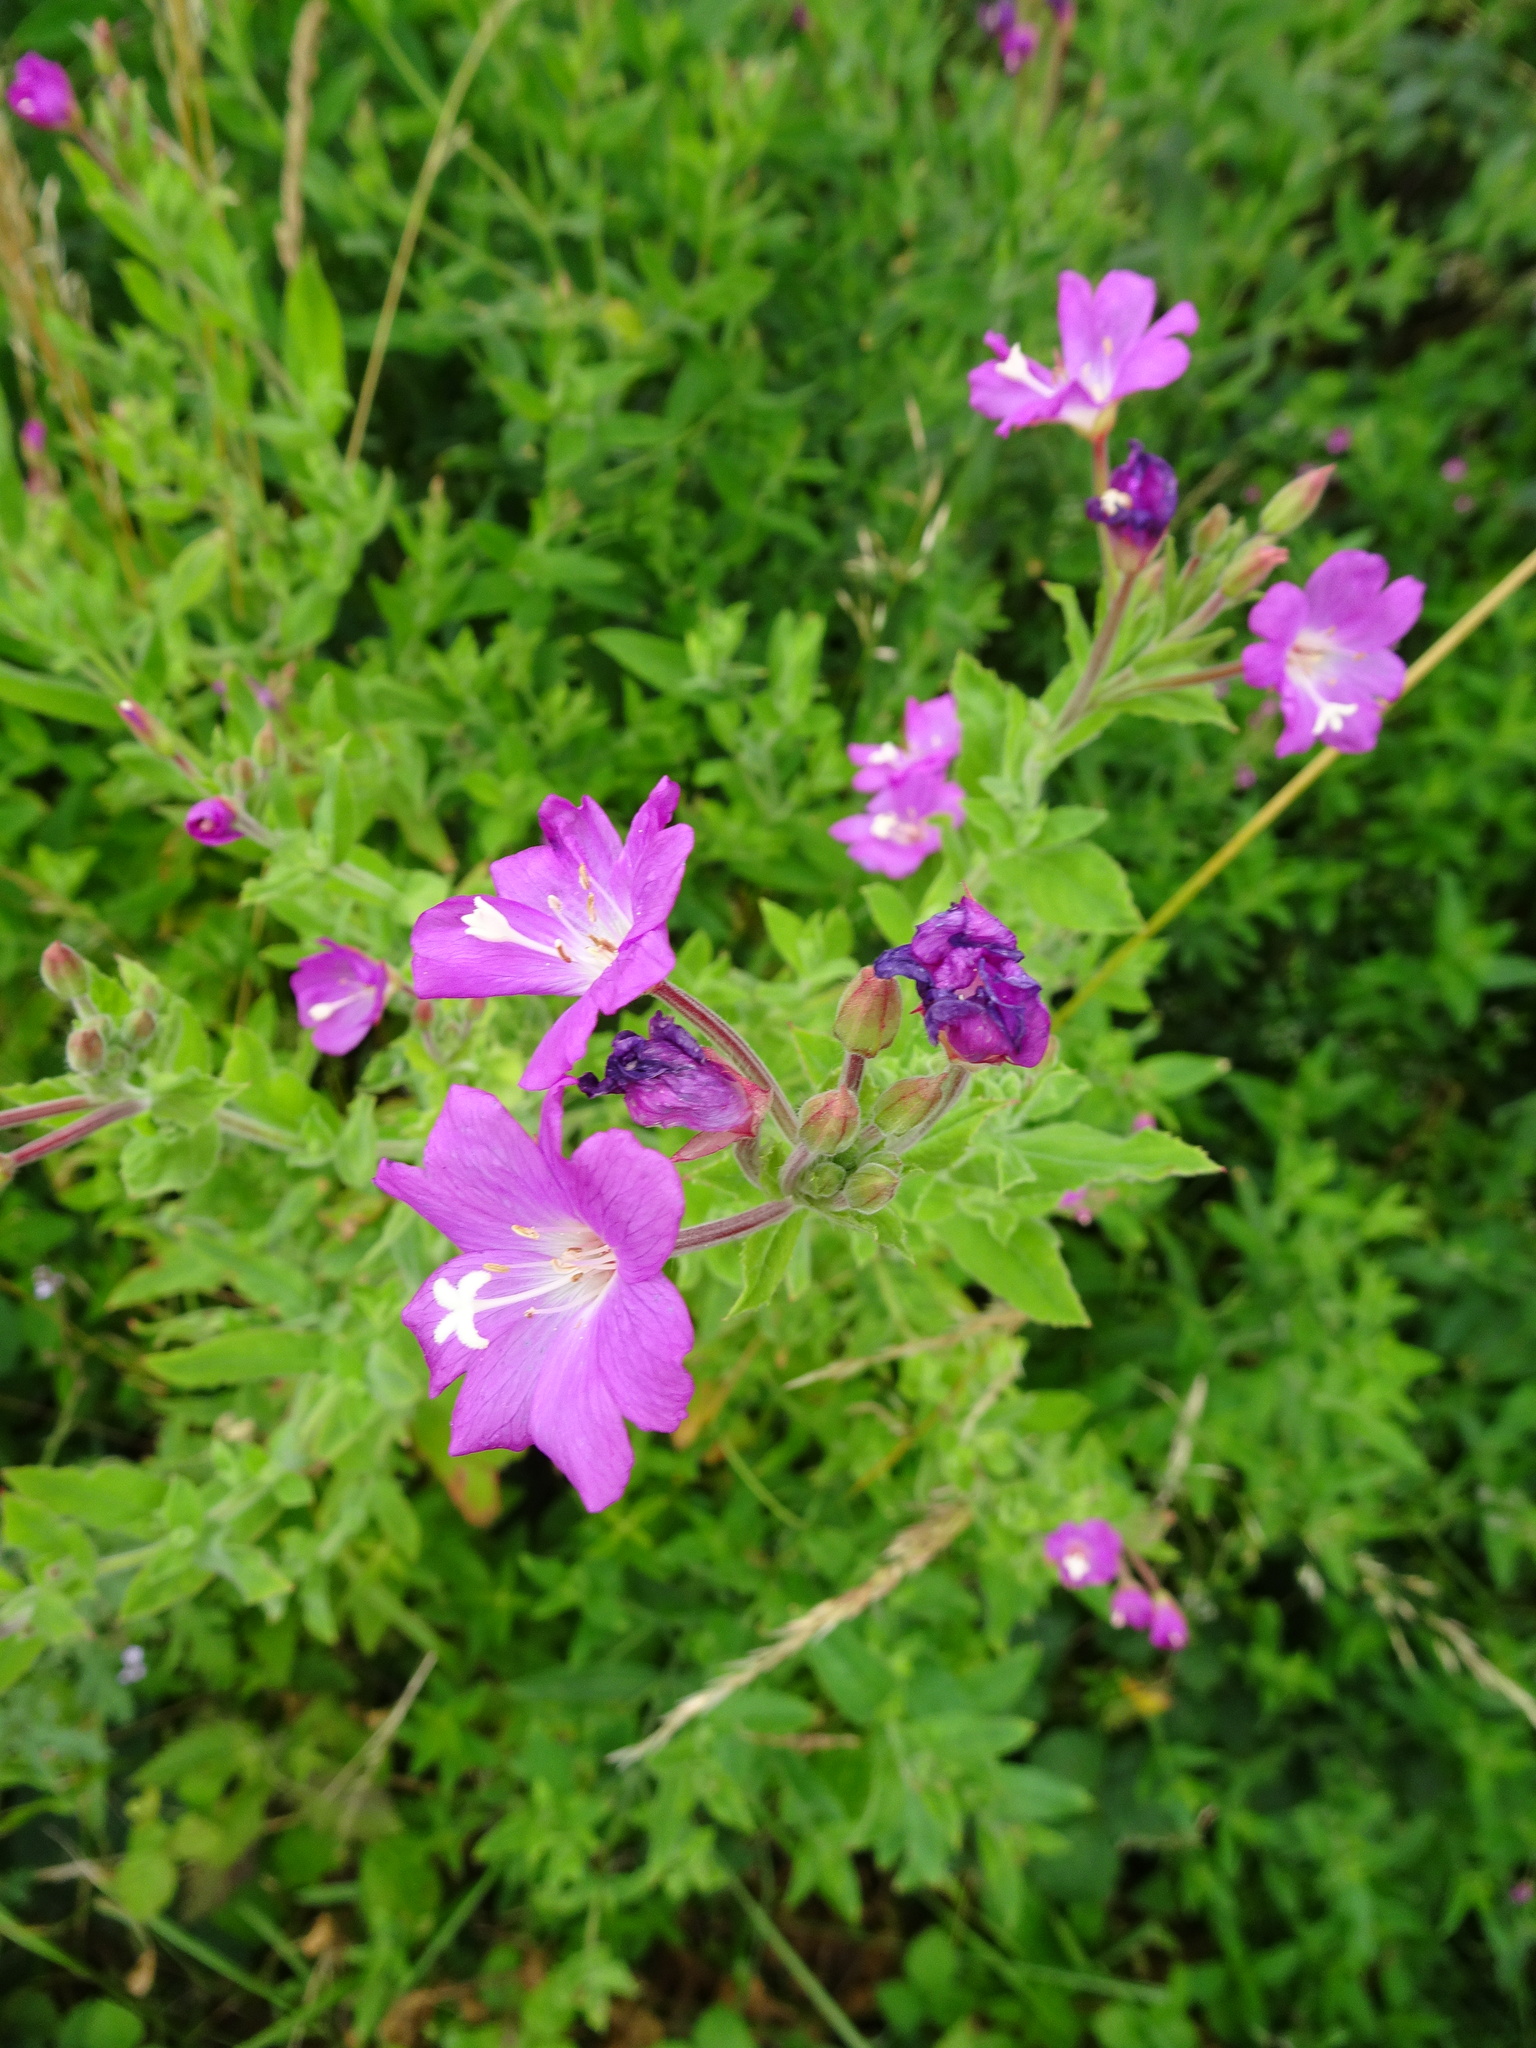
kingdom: Plantae
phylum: Tracheophyta
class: Magnoliopsida
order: Myrtales
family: Onagraceae
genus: Epilobium
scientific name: Epilobium hirsutum
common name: Great willowherb
